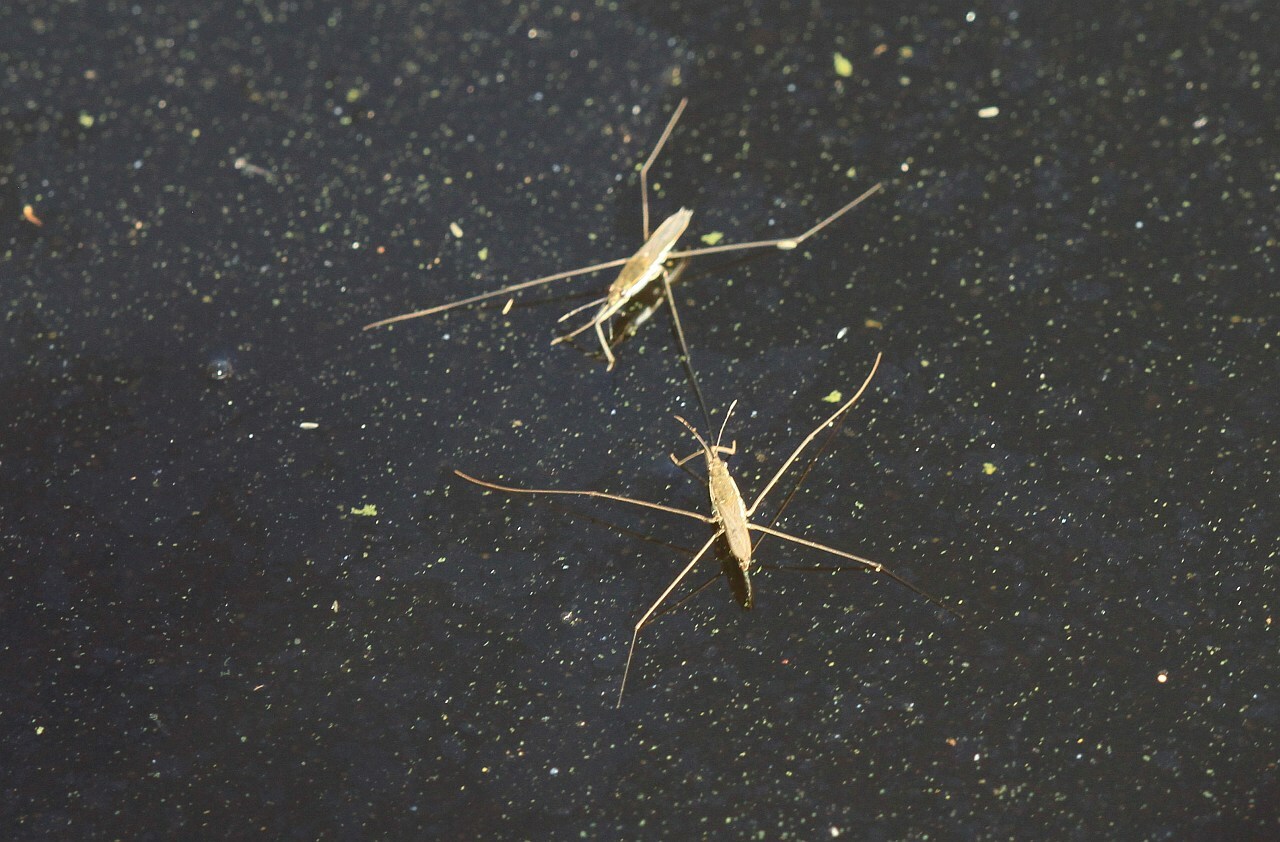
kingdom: Animalia
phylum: Arthropoda
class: Insecta
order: Hemiptera
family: Gerridae
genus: Aquarius
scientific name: Aquarius paludum
